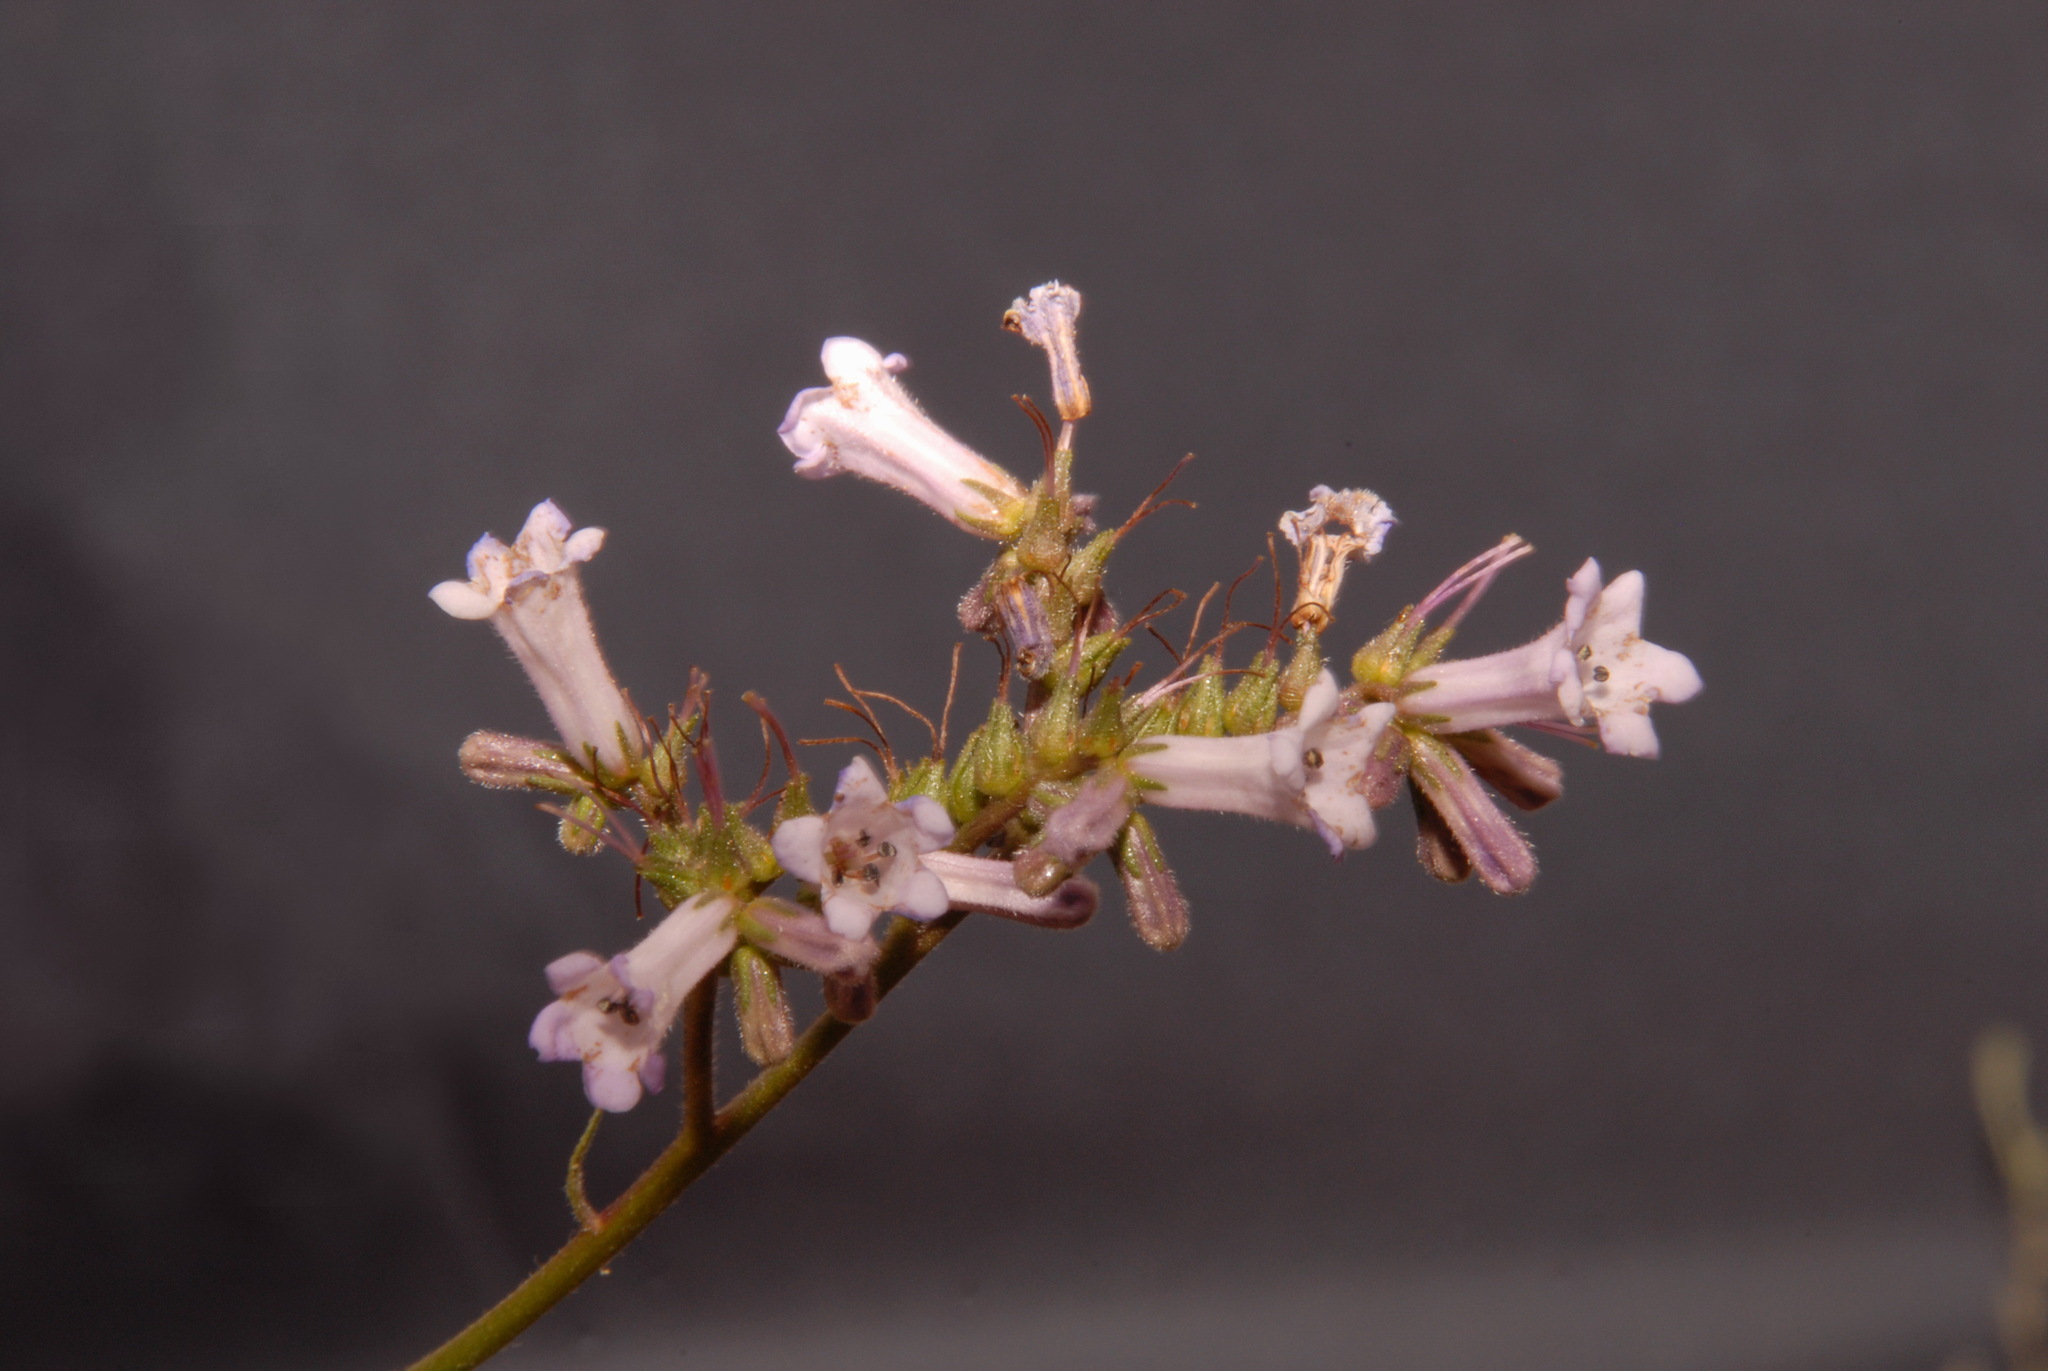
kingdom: Plantae
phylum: Tracheophyta
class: Magnoliopsida
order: Boraginales
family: Namaceae
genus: Eriodictyon
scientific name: Eriodictyon californicum
